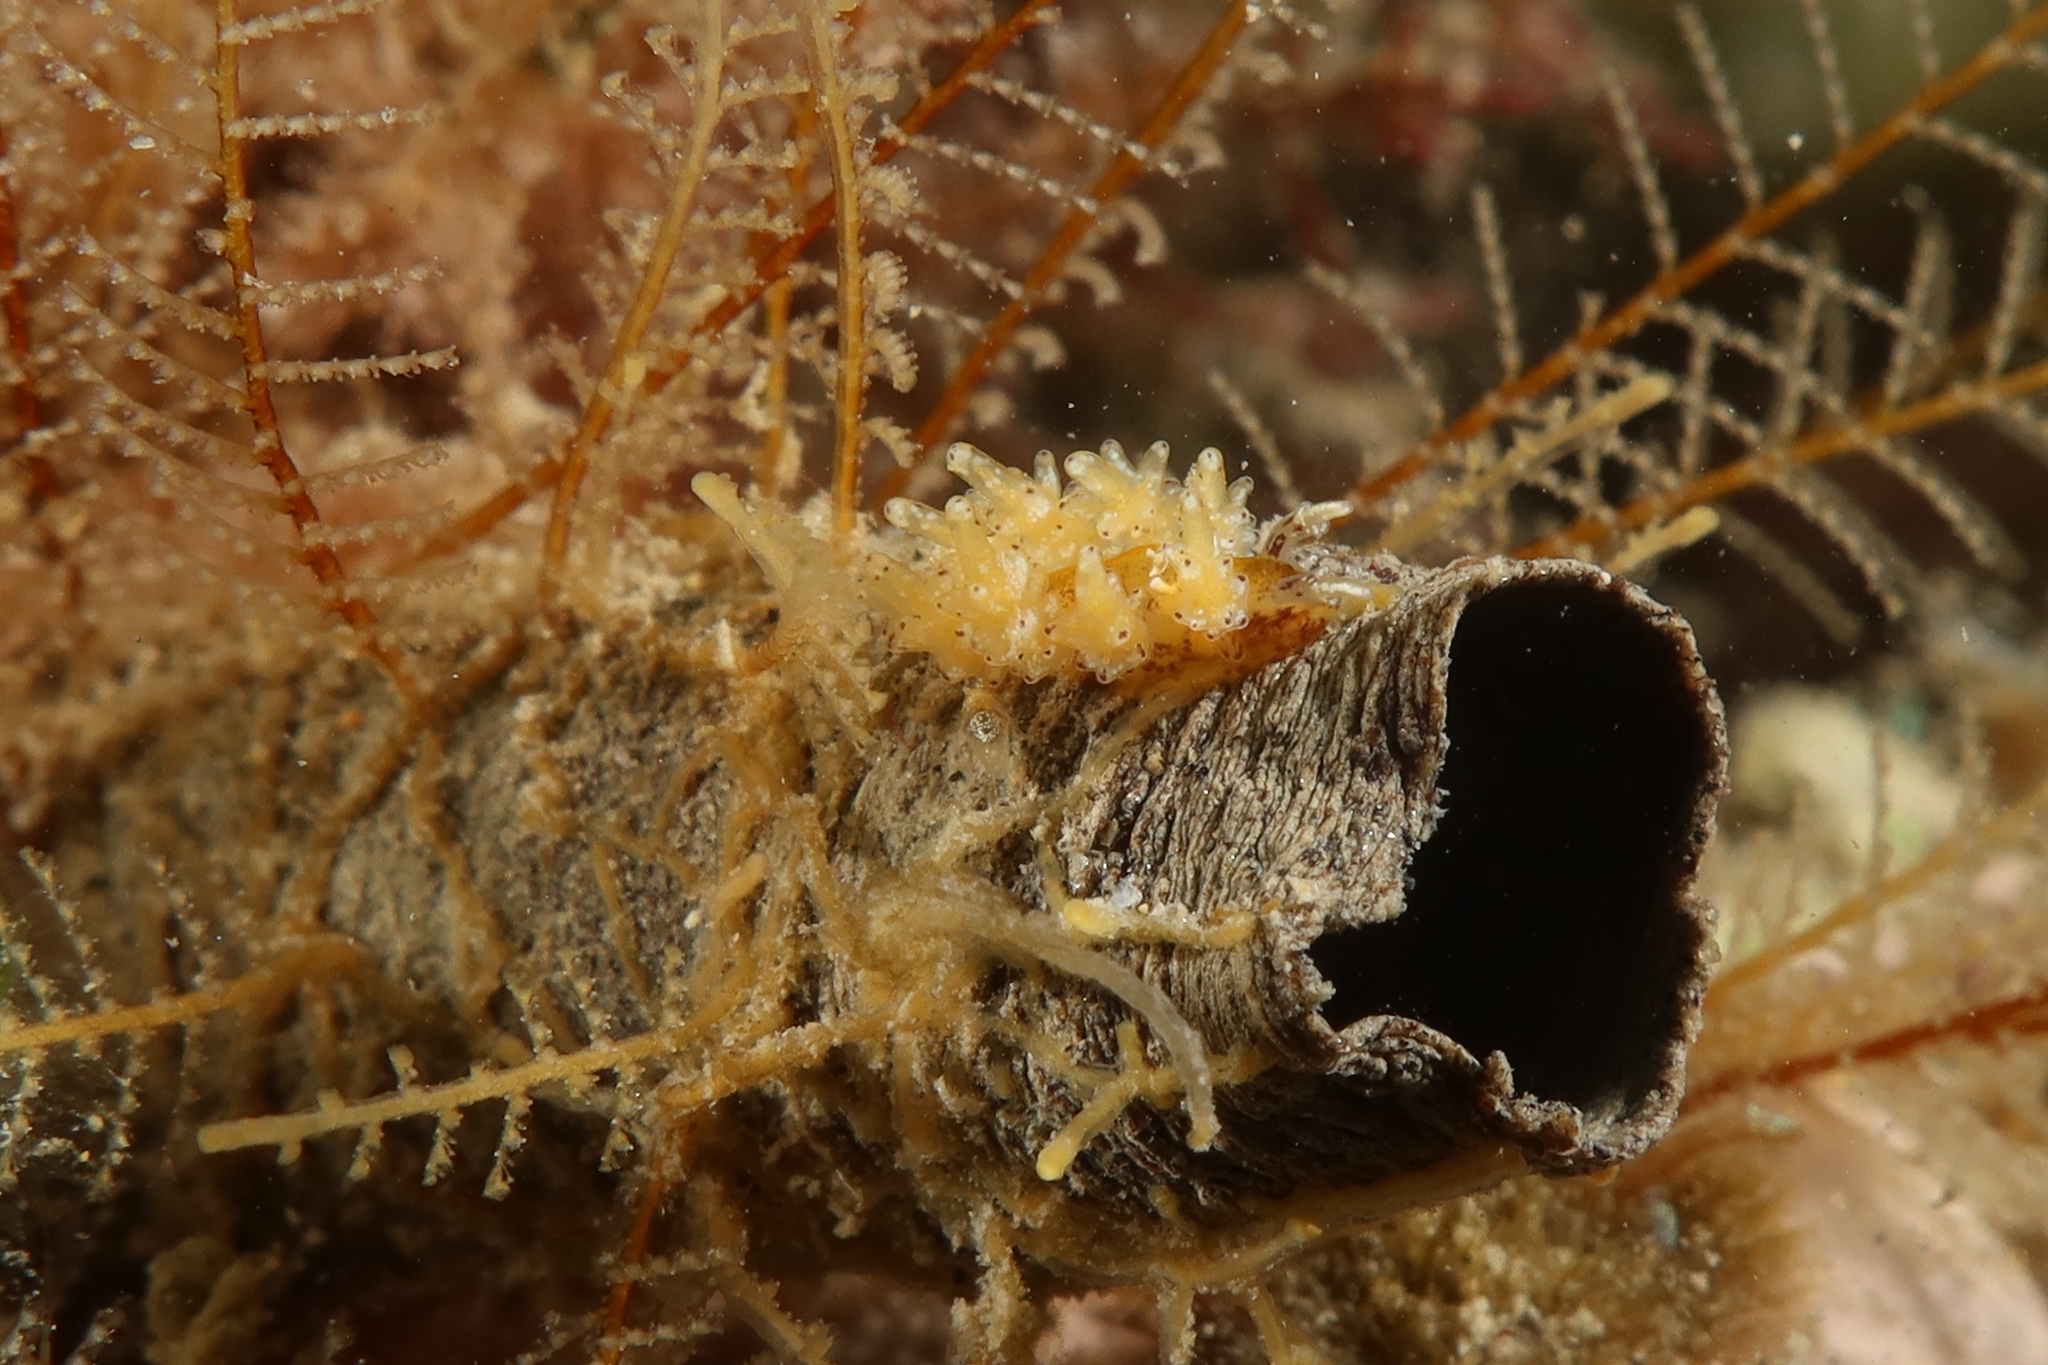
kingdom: Animalia
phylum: Mollusca
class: Gastropoda
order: Nudibranchia
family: Dotidae
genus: Doto
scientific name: Doto koenneckeri
